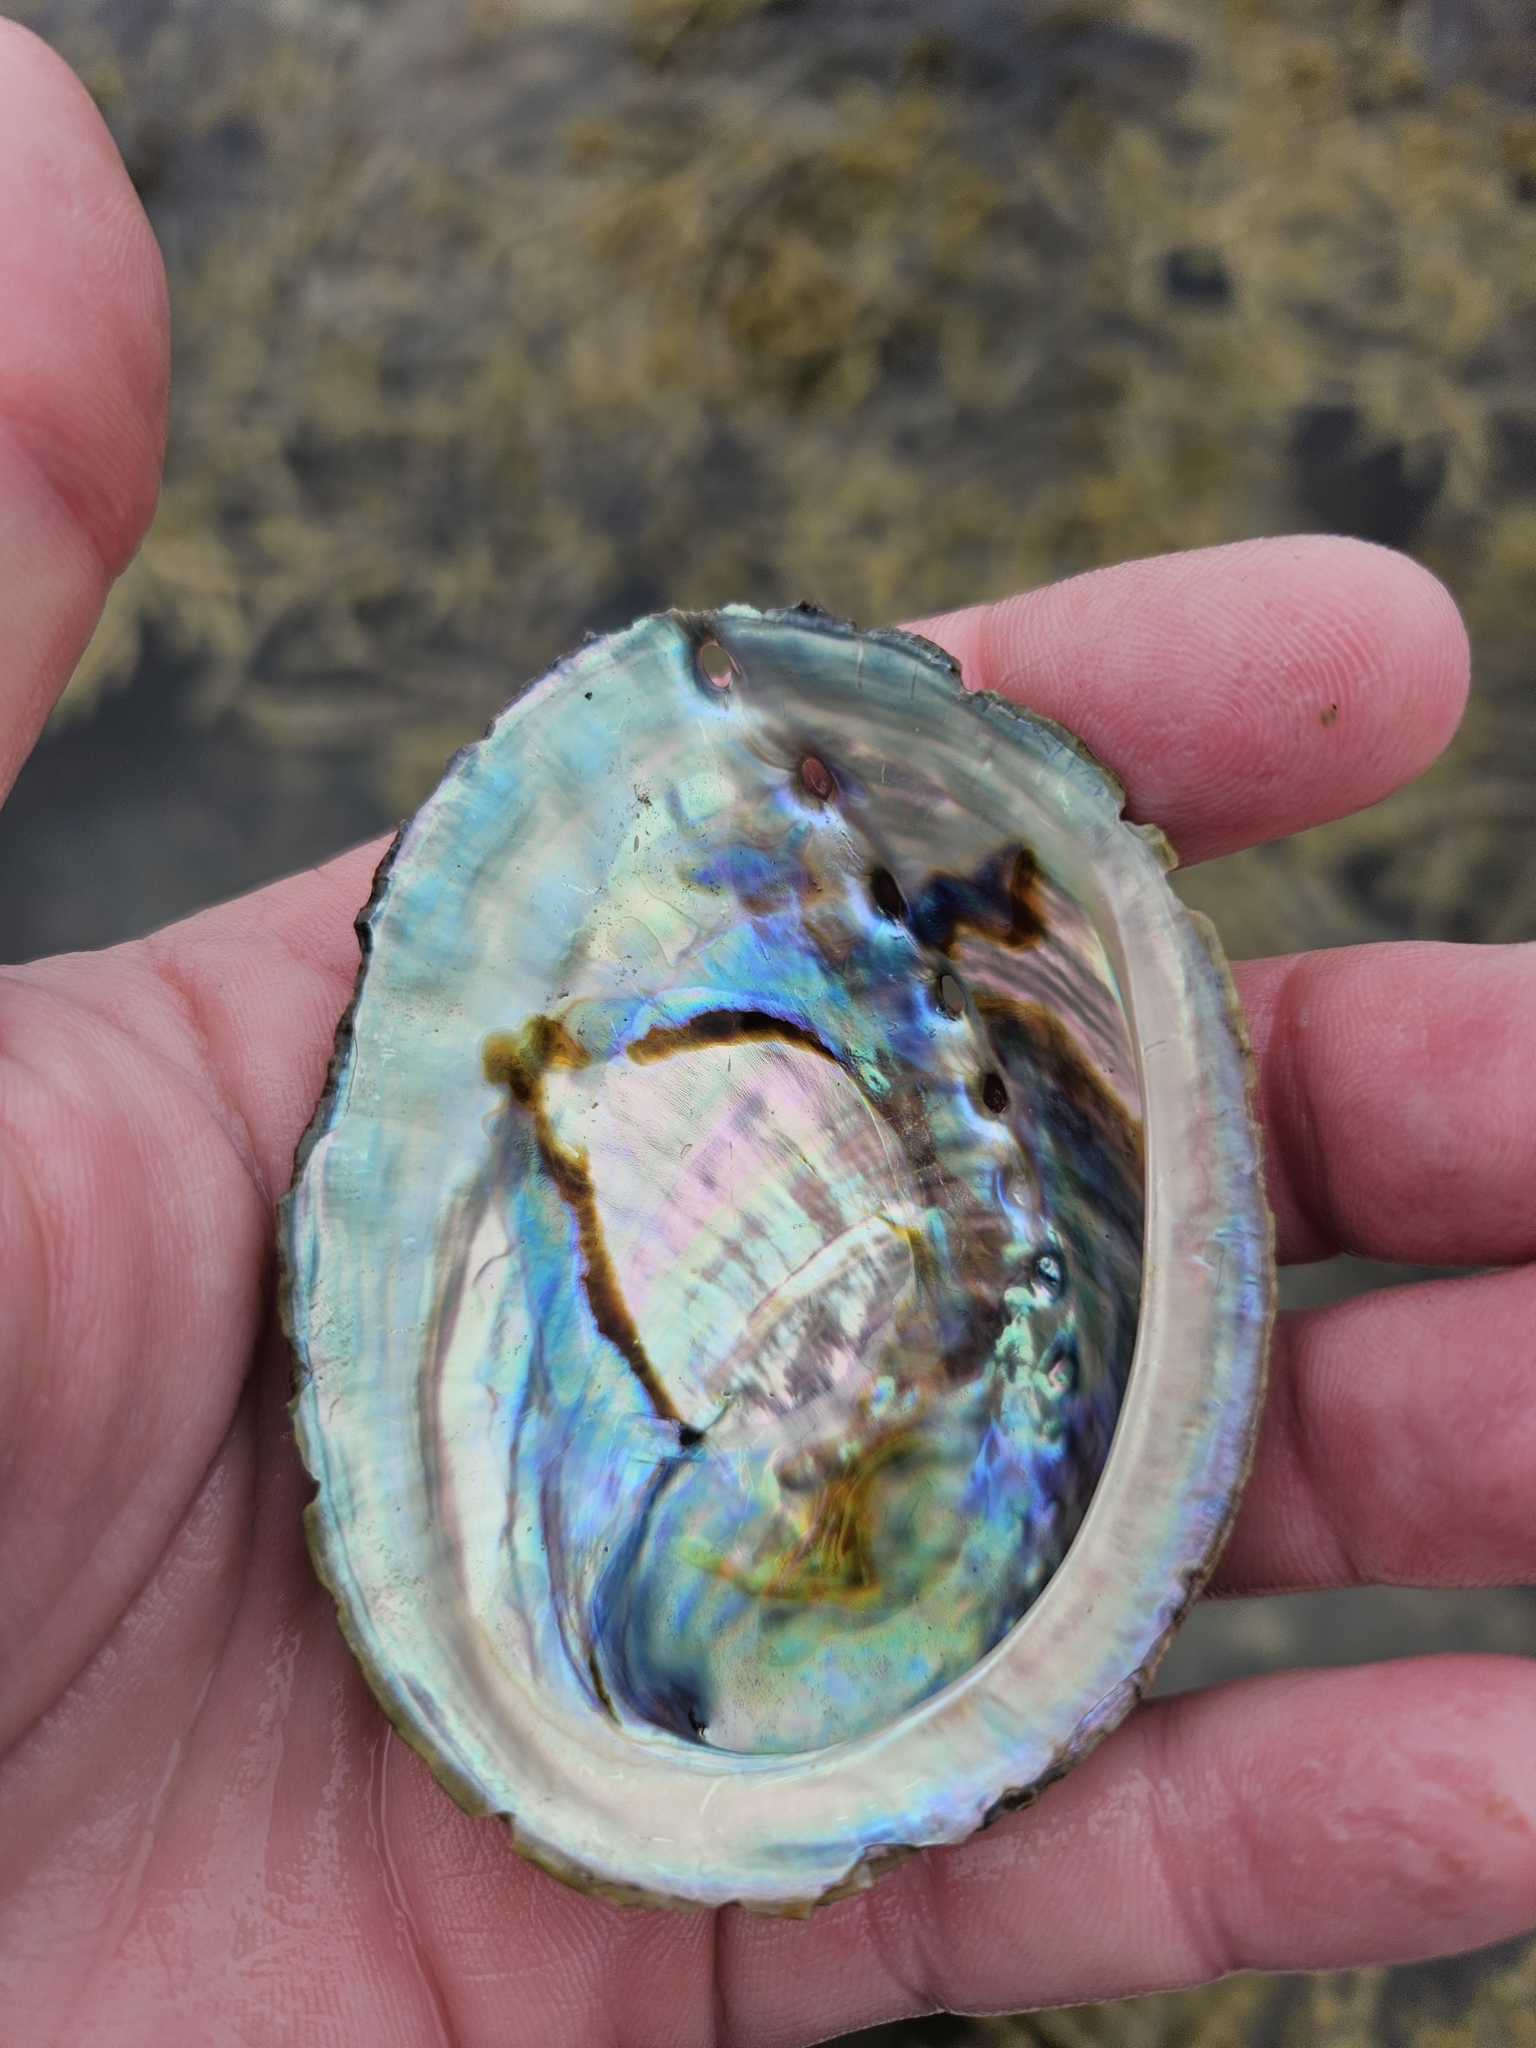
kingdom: Animalia
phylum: Mollusca
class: Gastropoda
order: Lepetellida
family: Haliotidae
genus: Haliotis
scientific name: Haliotis iris
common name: Abalone
